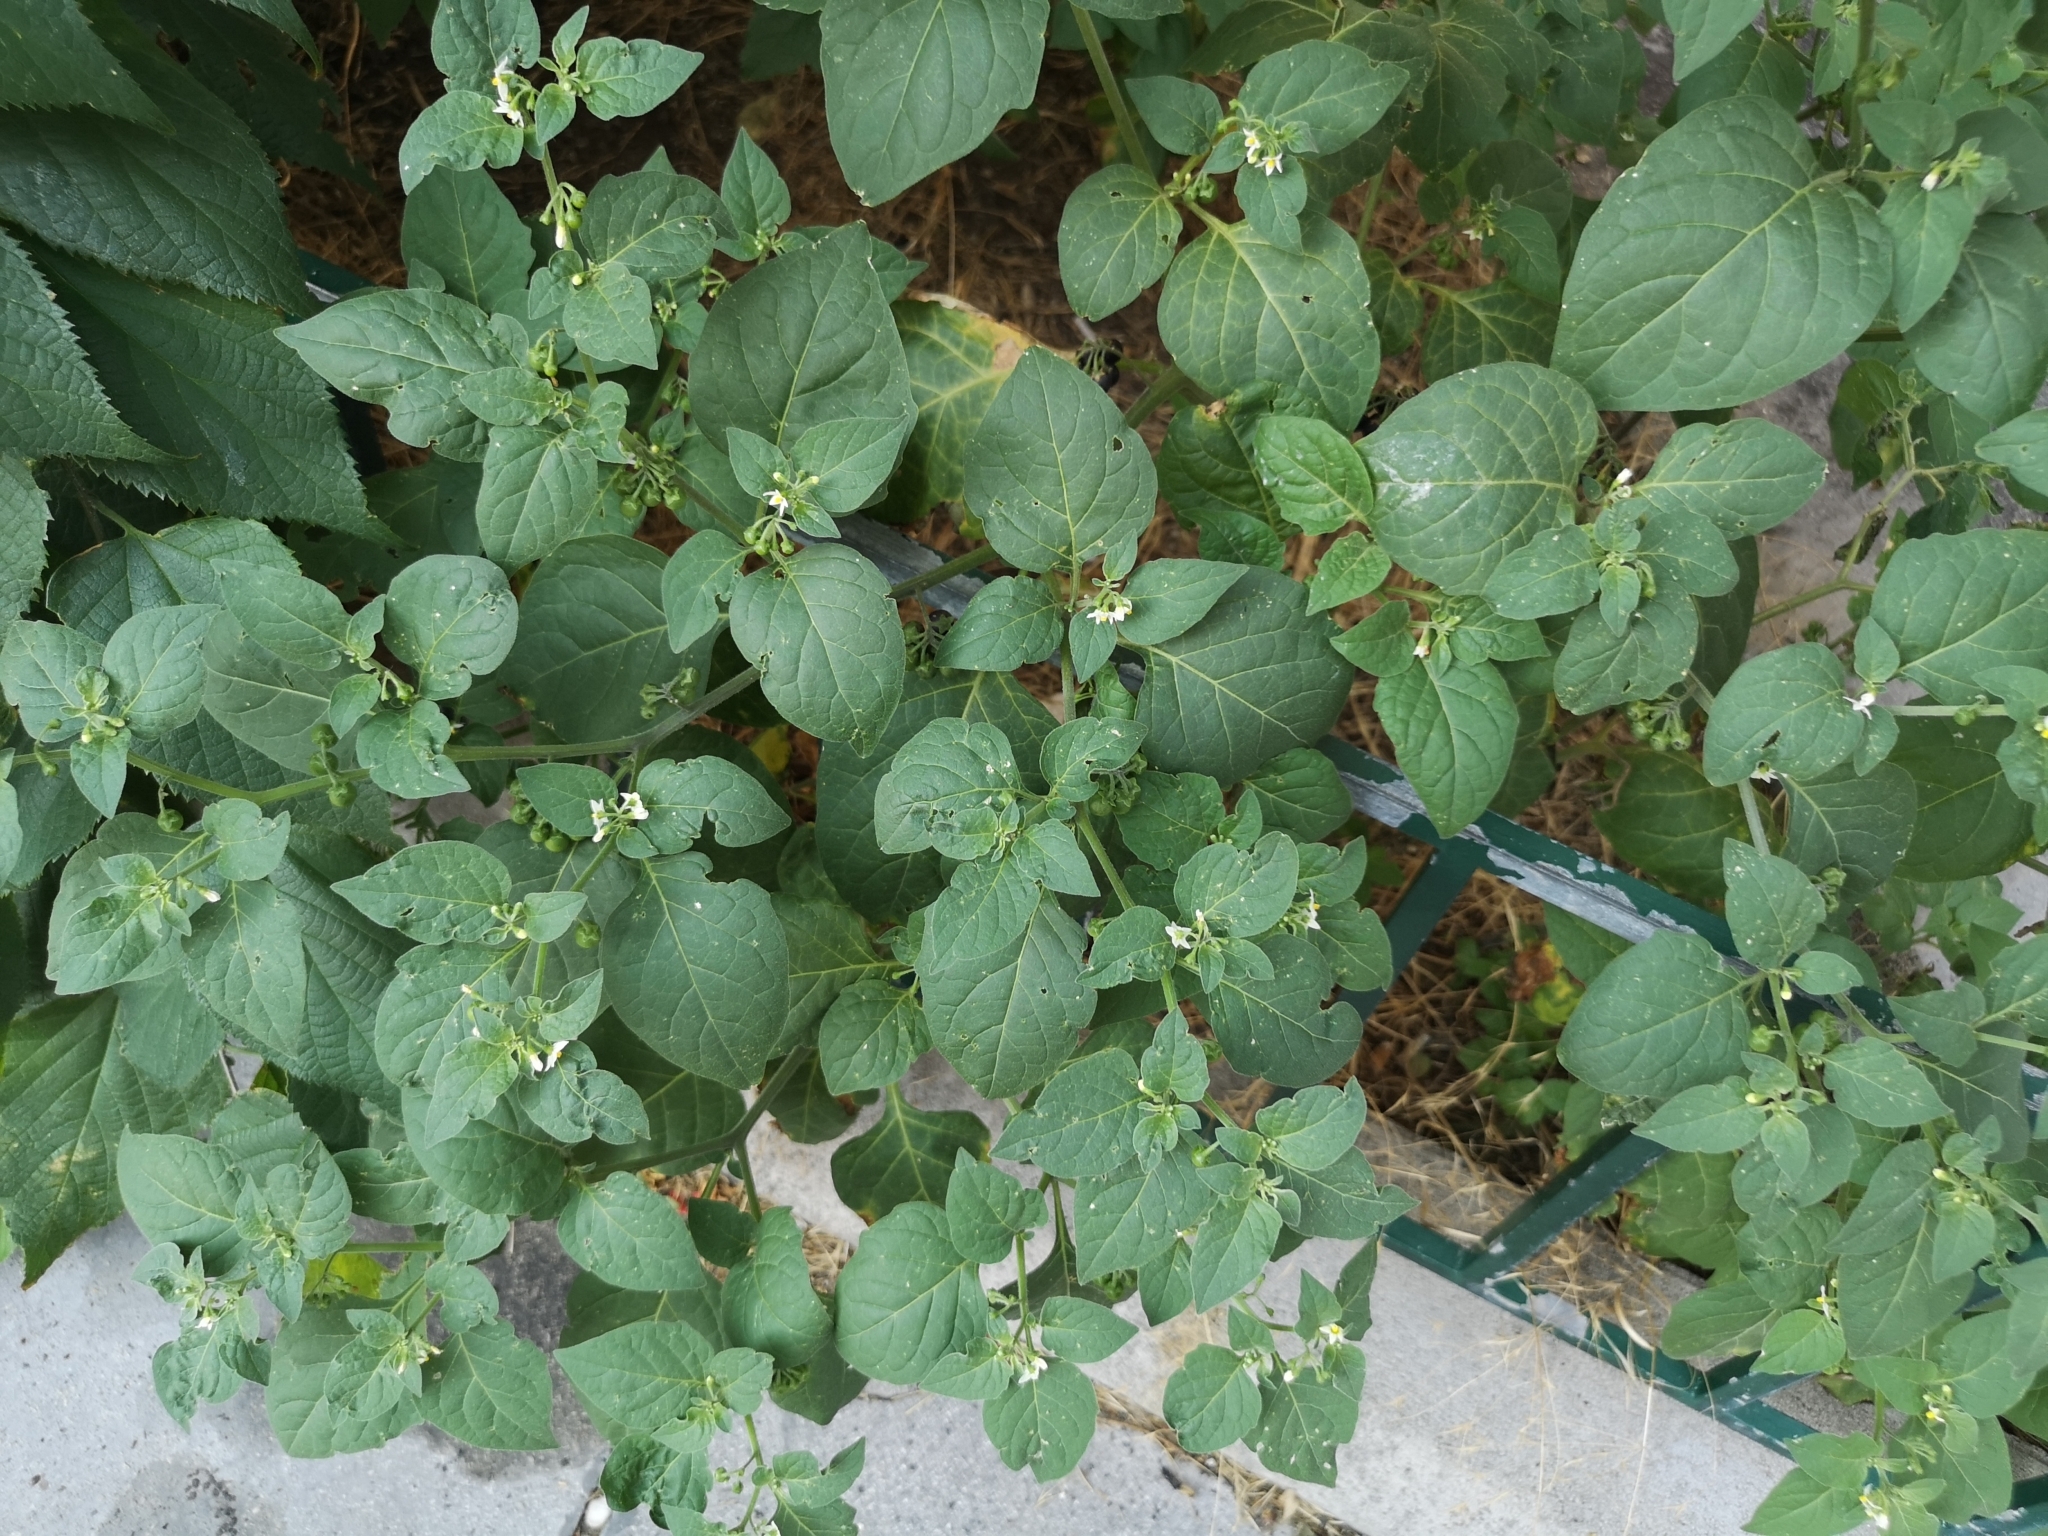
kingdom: Plantae
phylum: Tracheophyta
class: Magnoliopsida
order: Solanales
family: Solanaceae
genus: Solanum
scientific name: Solanum nigrum
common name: Black nightshade
